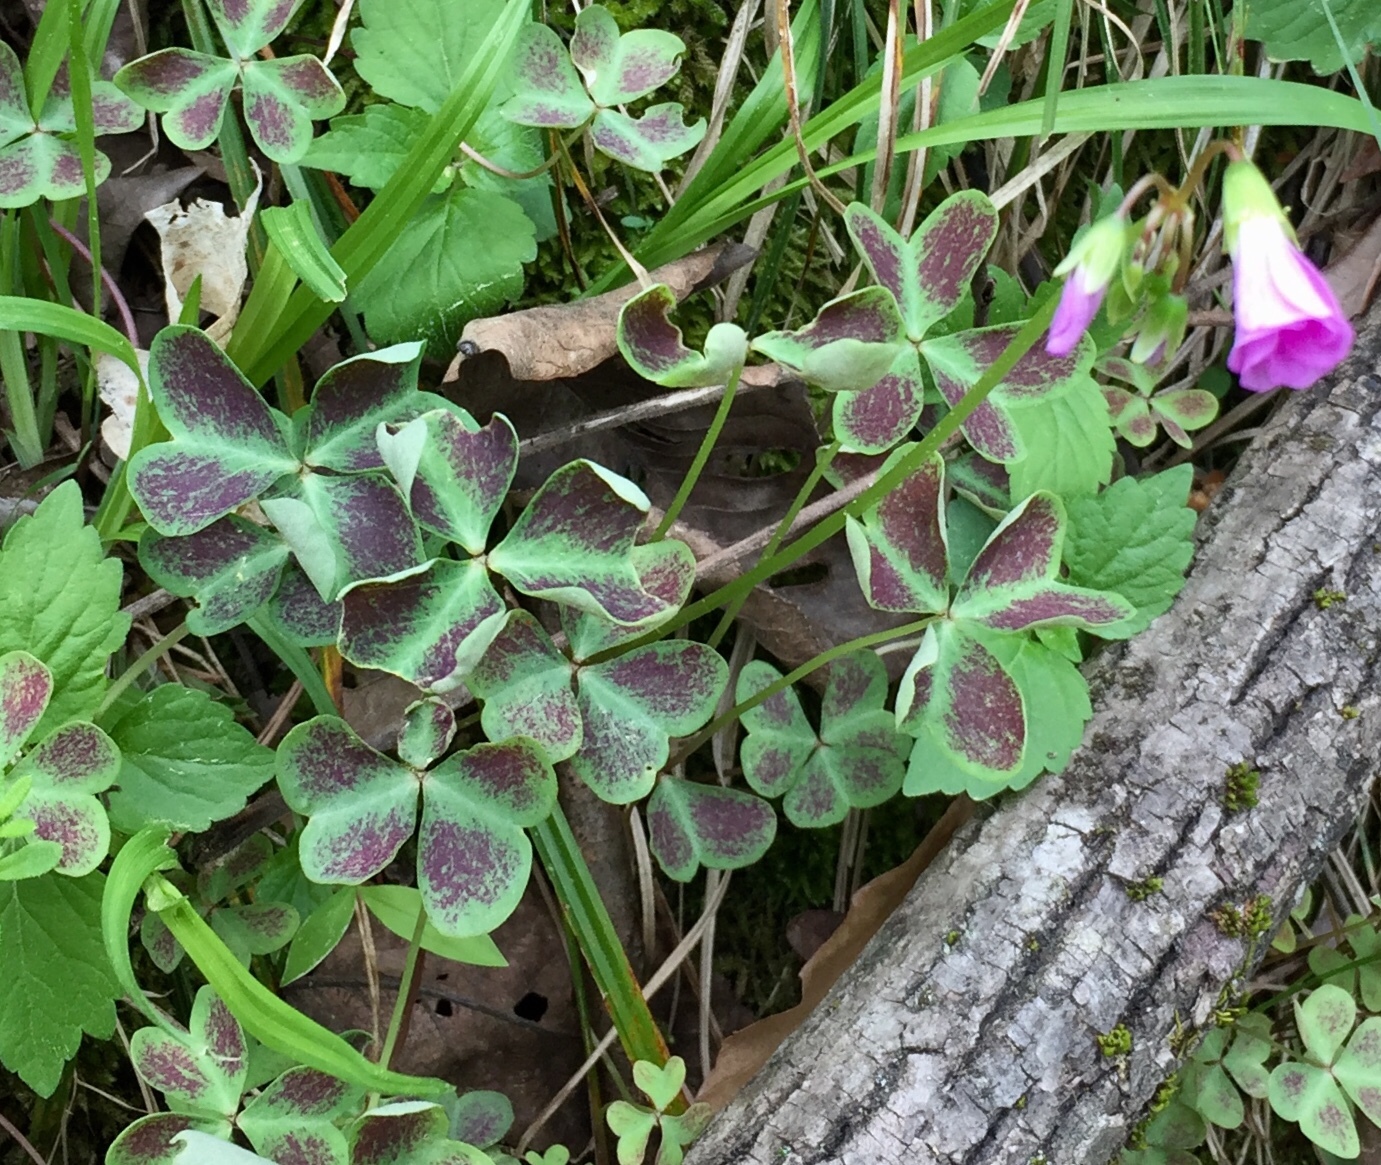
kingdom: Plantae
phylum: Tracheophyta
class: Magnoliopsida
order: Oxalidales
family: Oxalidaceae
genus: Oxalis
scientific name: Oxalis violacea
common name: Violet wood-sorrel
